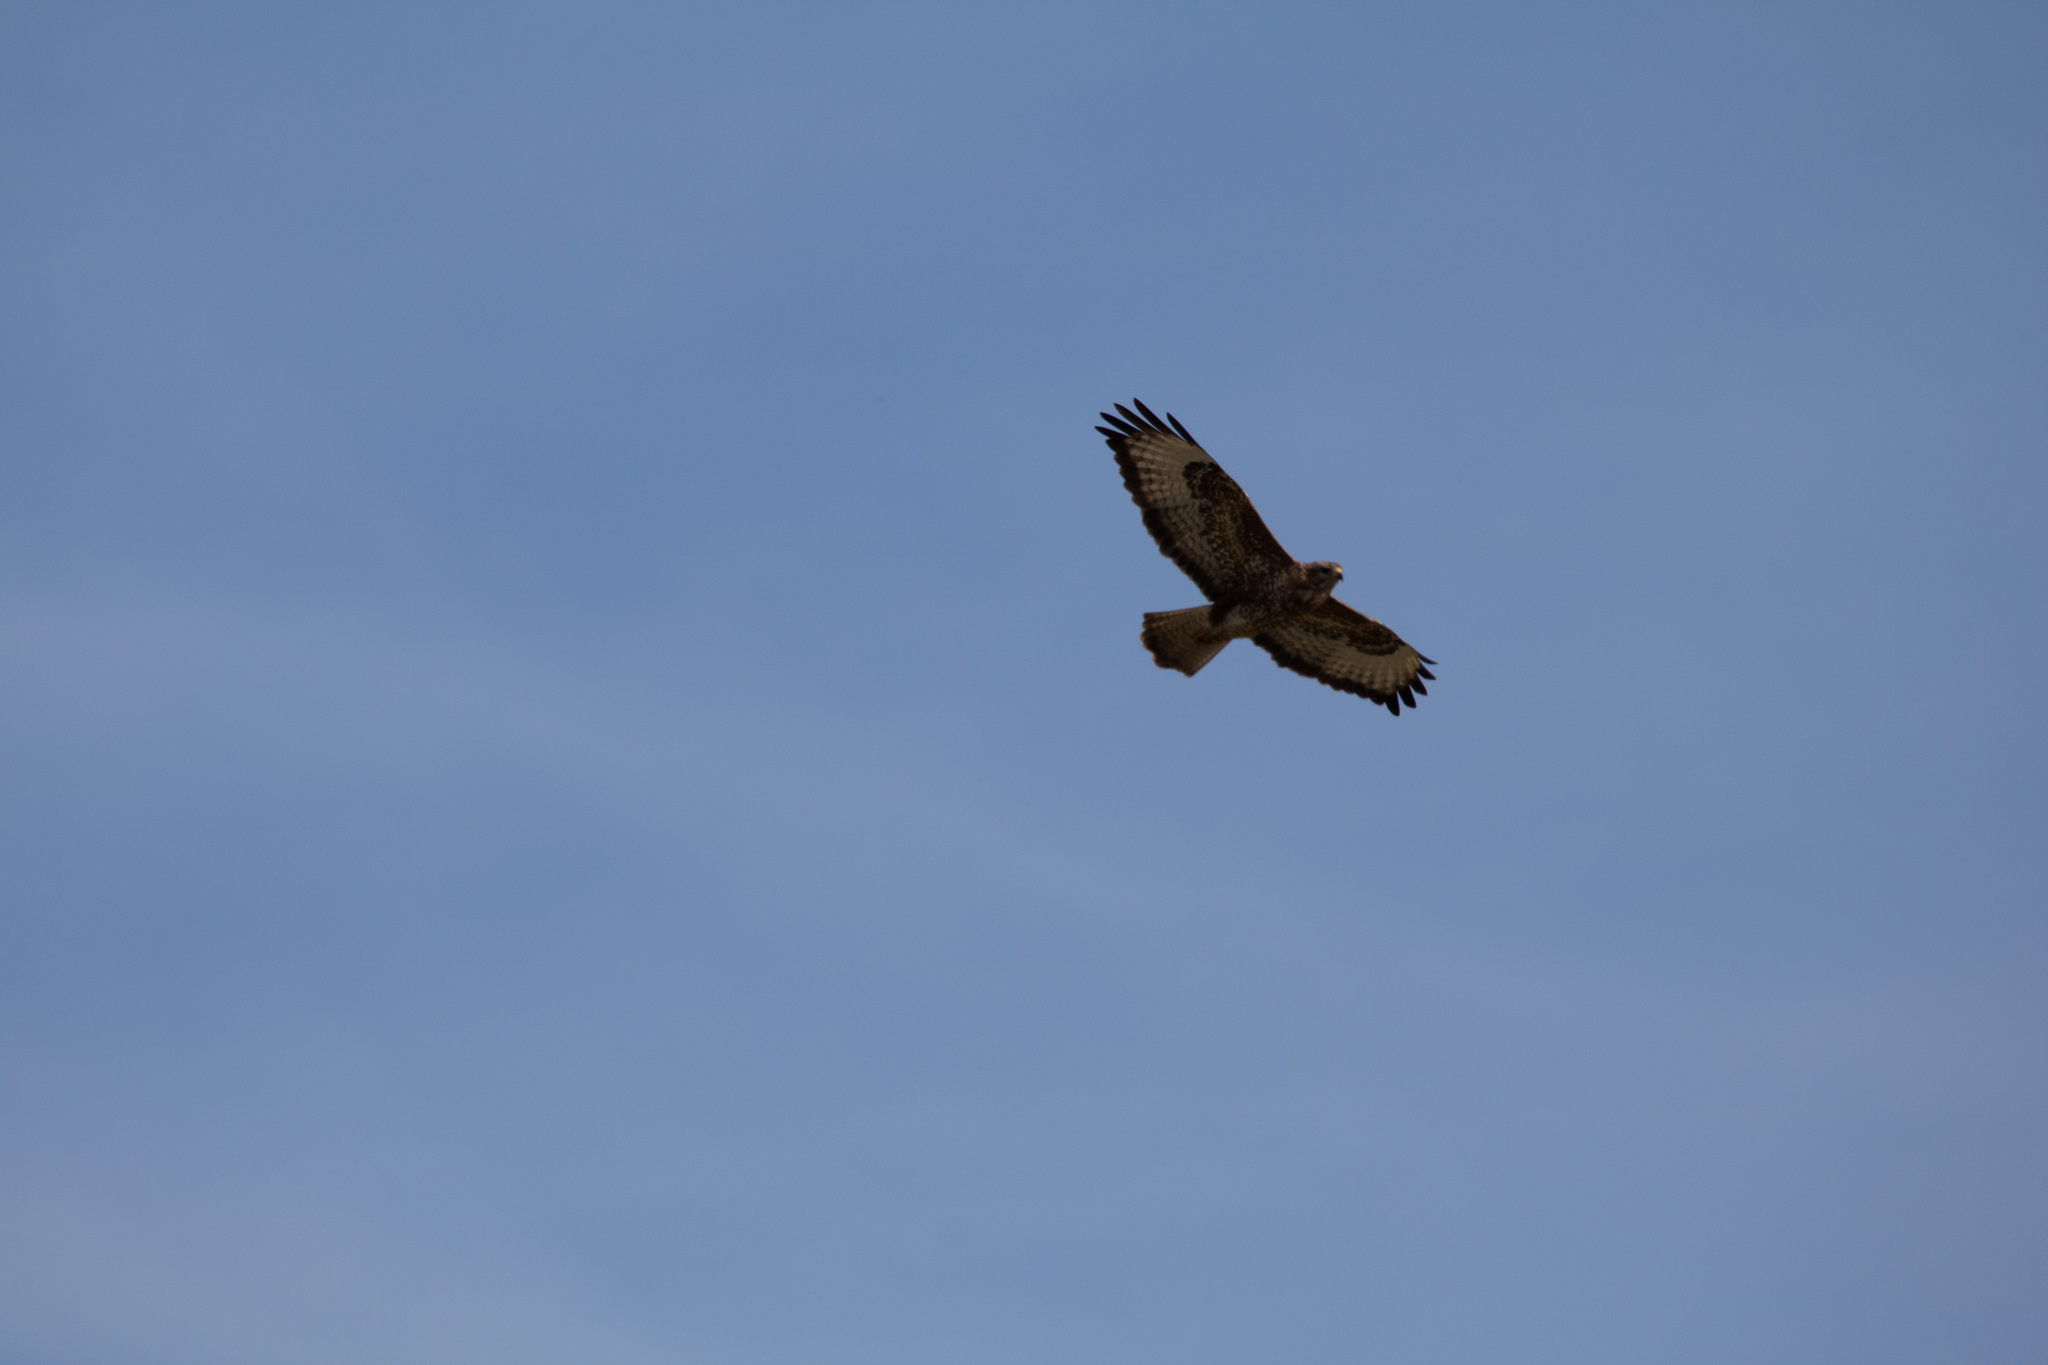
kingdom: Animalia
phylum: Chordata
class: Aves
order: Accipitriformes
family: Accipitridae
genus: Buteo
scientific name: Buteo buteo
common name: Common buzzard
